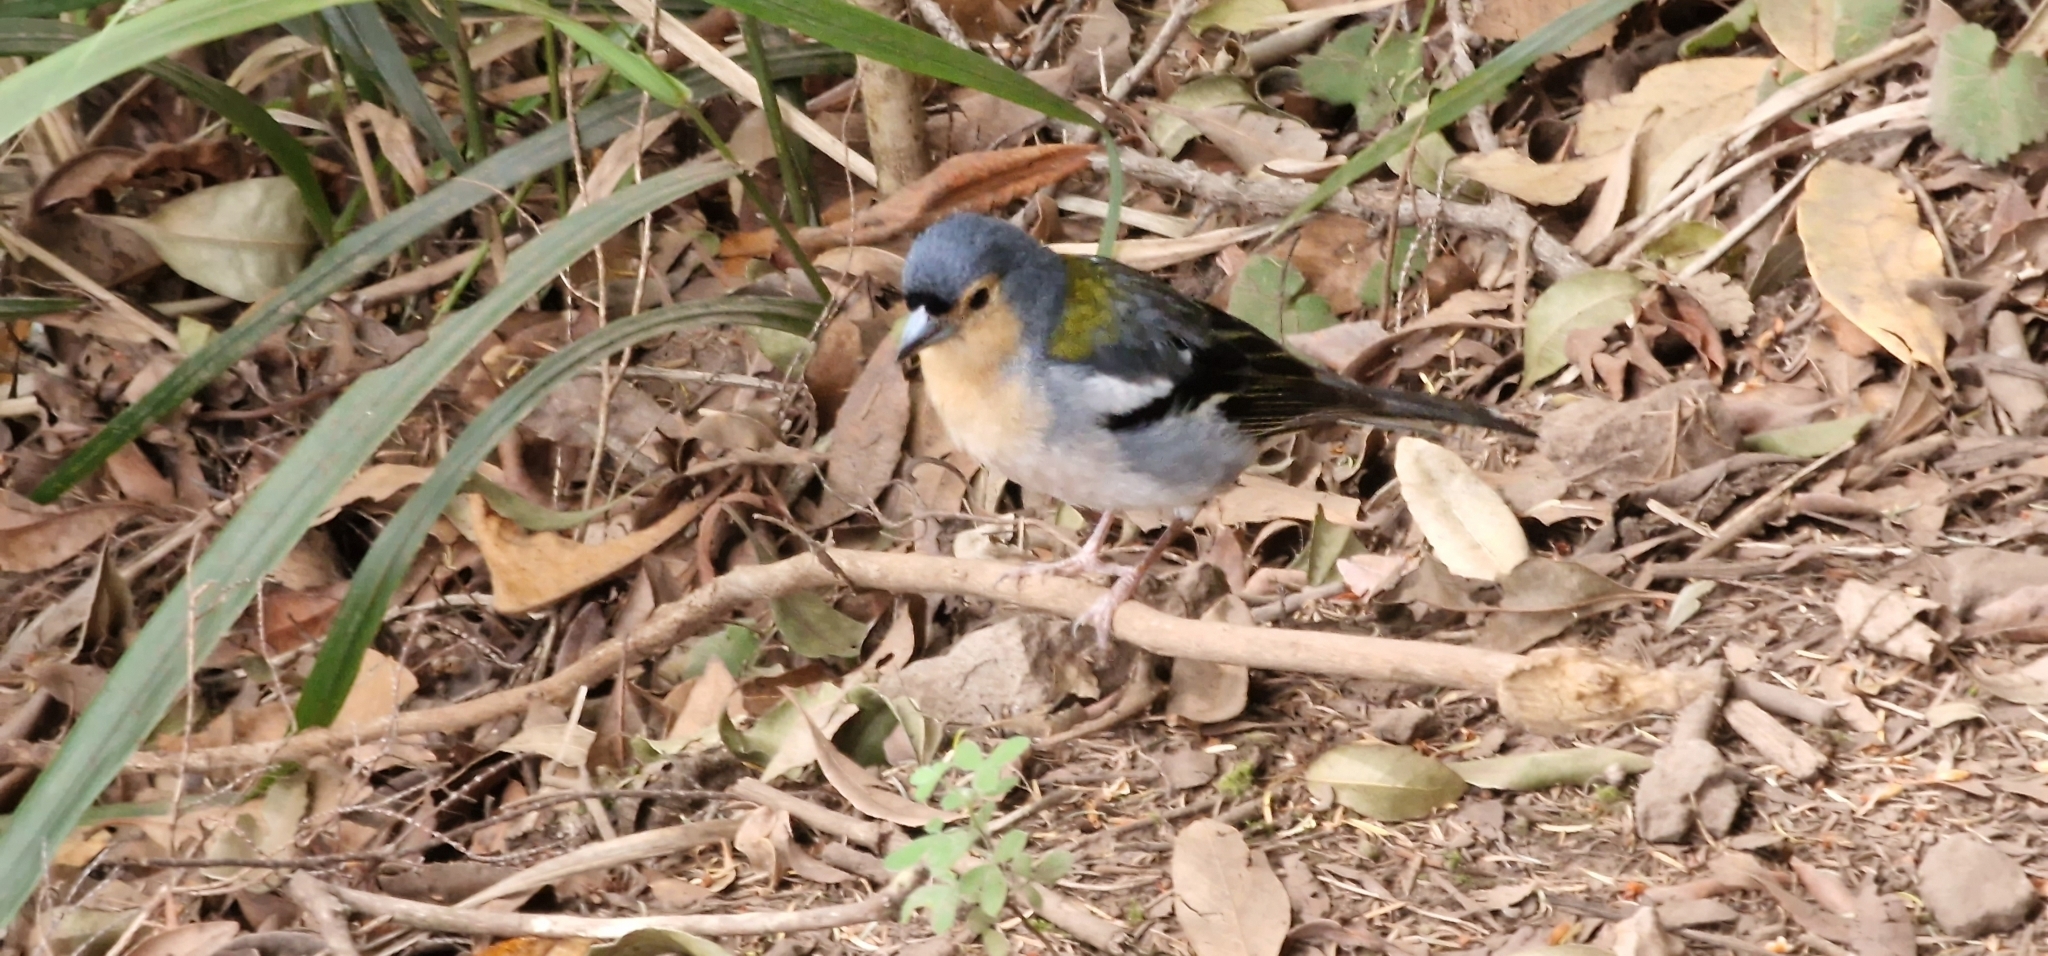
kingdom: Animalia
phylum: Chordata
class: Aves
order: Passeriformes
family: Fringillidae
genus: Fringilla
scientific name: Fringilla maderensis
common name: Madeira chaffinch
